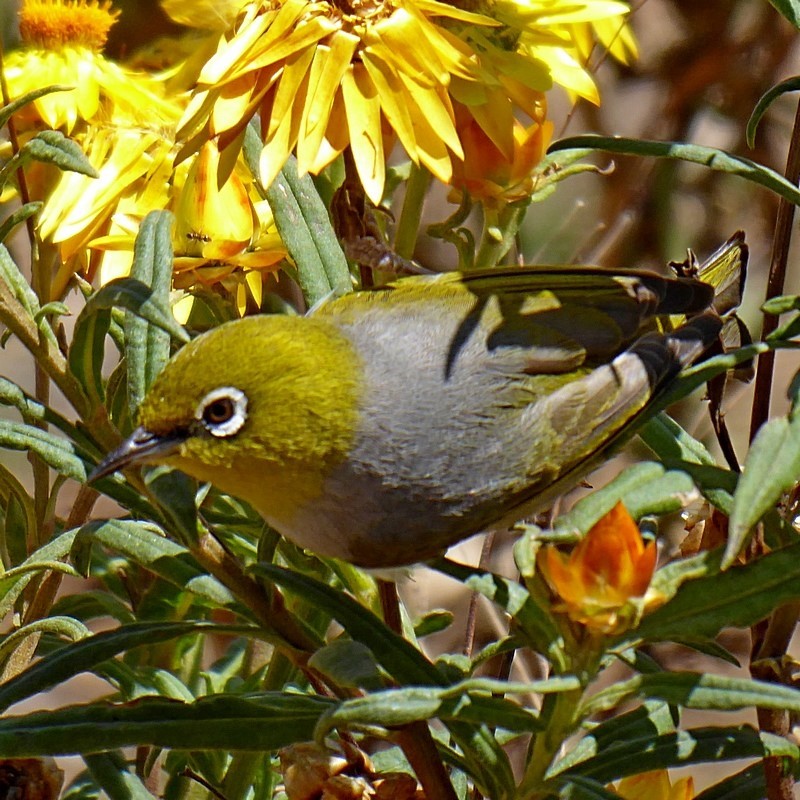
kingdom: Animalia
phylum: Chordata
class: Aves
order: Passeriformes
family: Zosteropidae
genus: Zosterops
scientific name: Zosterops lateralis
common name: Silvereye
